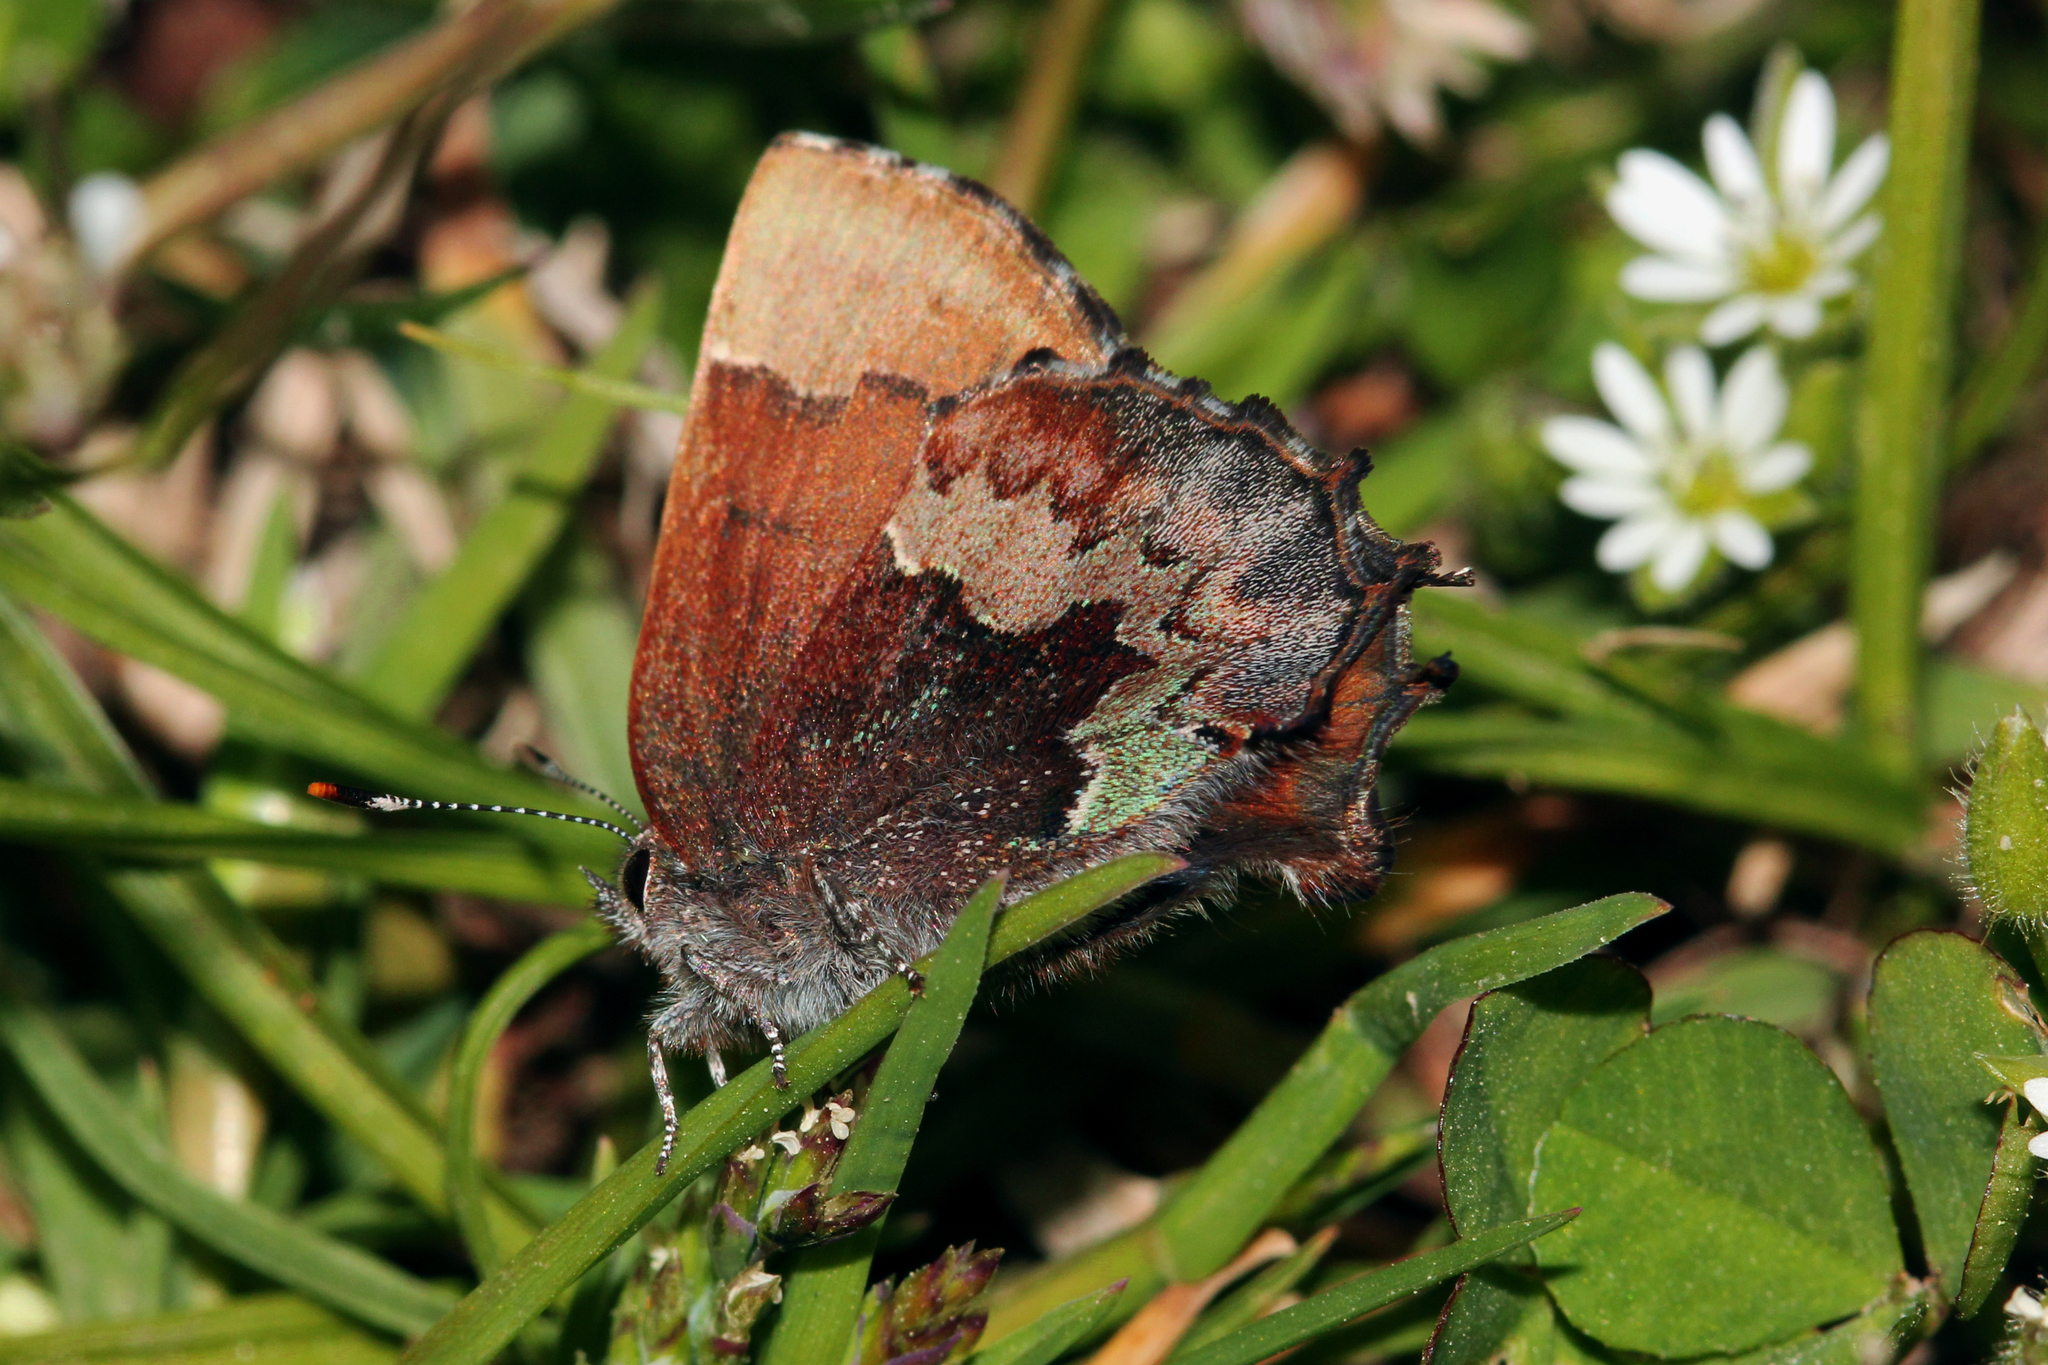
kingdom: Animalia
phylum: Arthropoda
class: Insecta
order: Lepidoptera
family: Lycaenidae
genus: Incisalia
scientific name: Incisalia henrici
